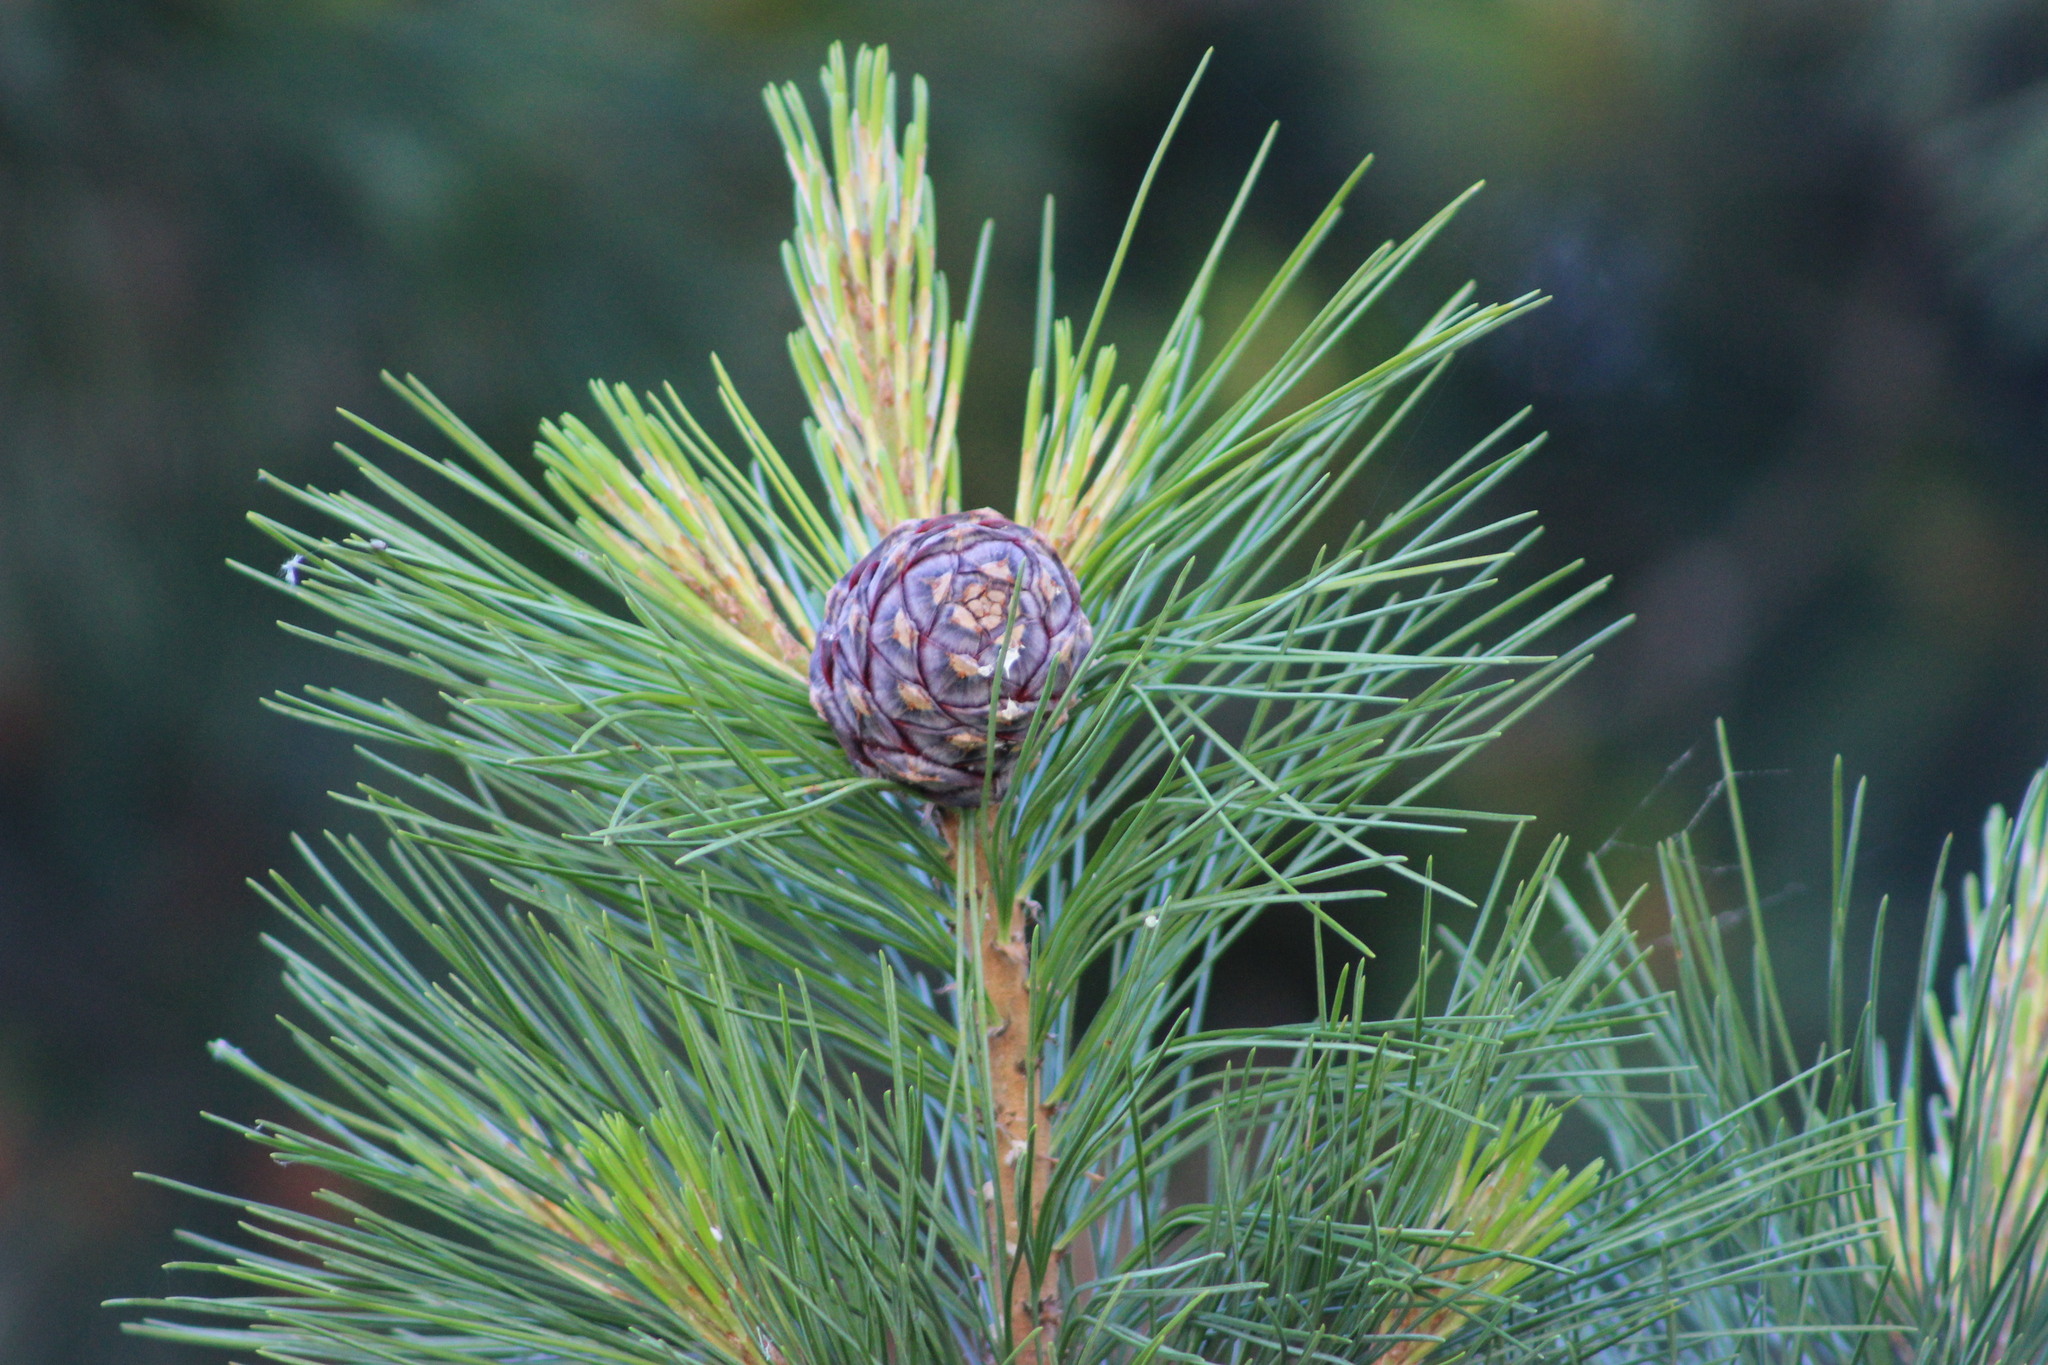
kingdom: Plantae
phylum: Tracheophyta
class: Pinopsida
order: Pinales
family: Pinaceae
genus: Pinus
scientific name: Pinus sibirica
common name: Siberian pine
